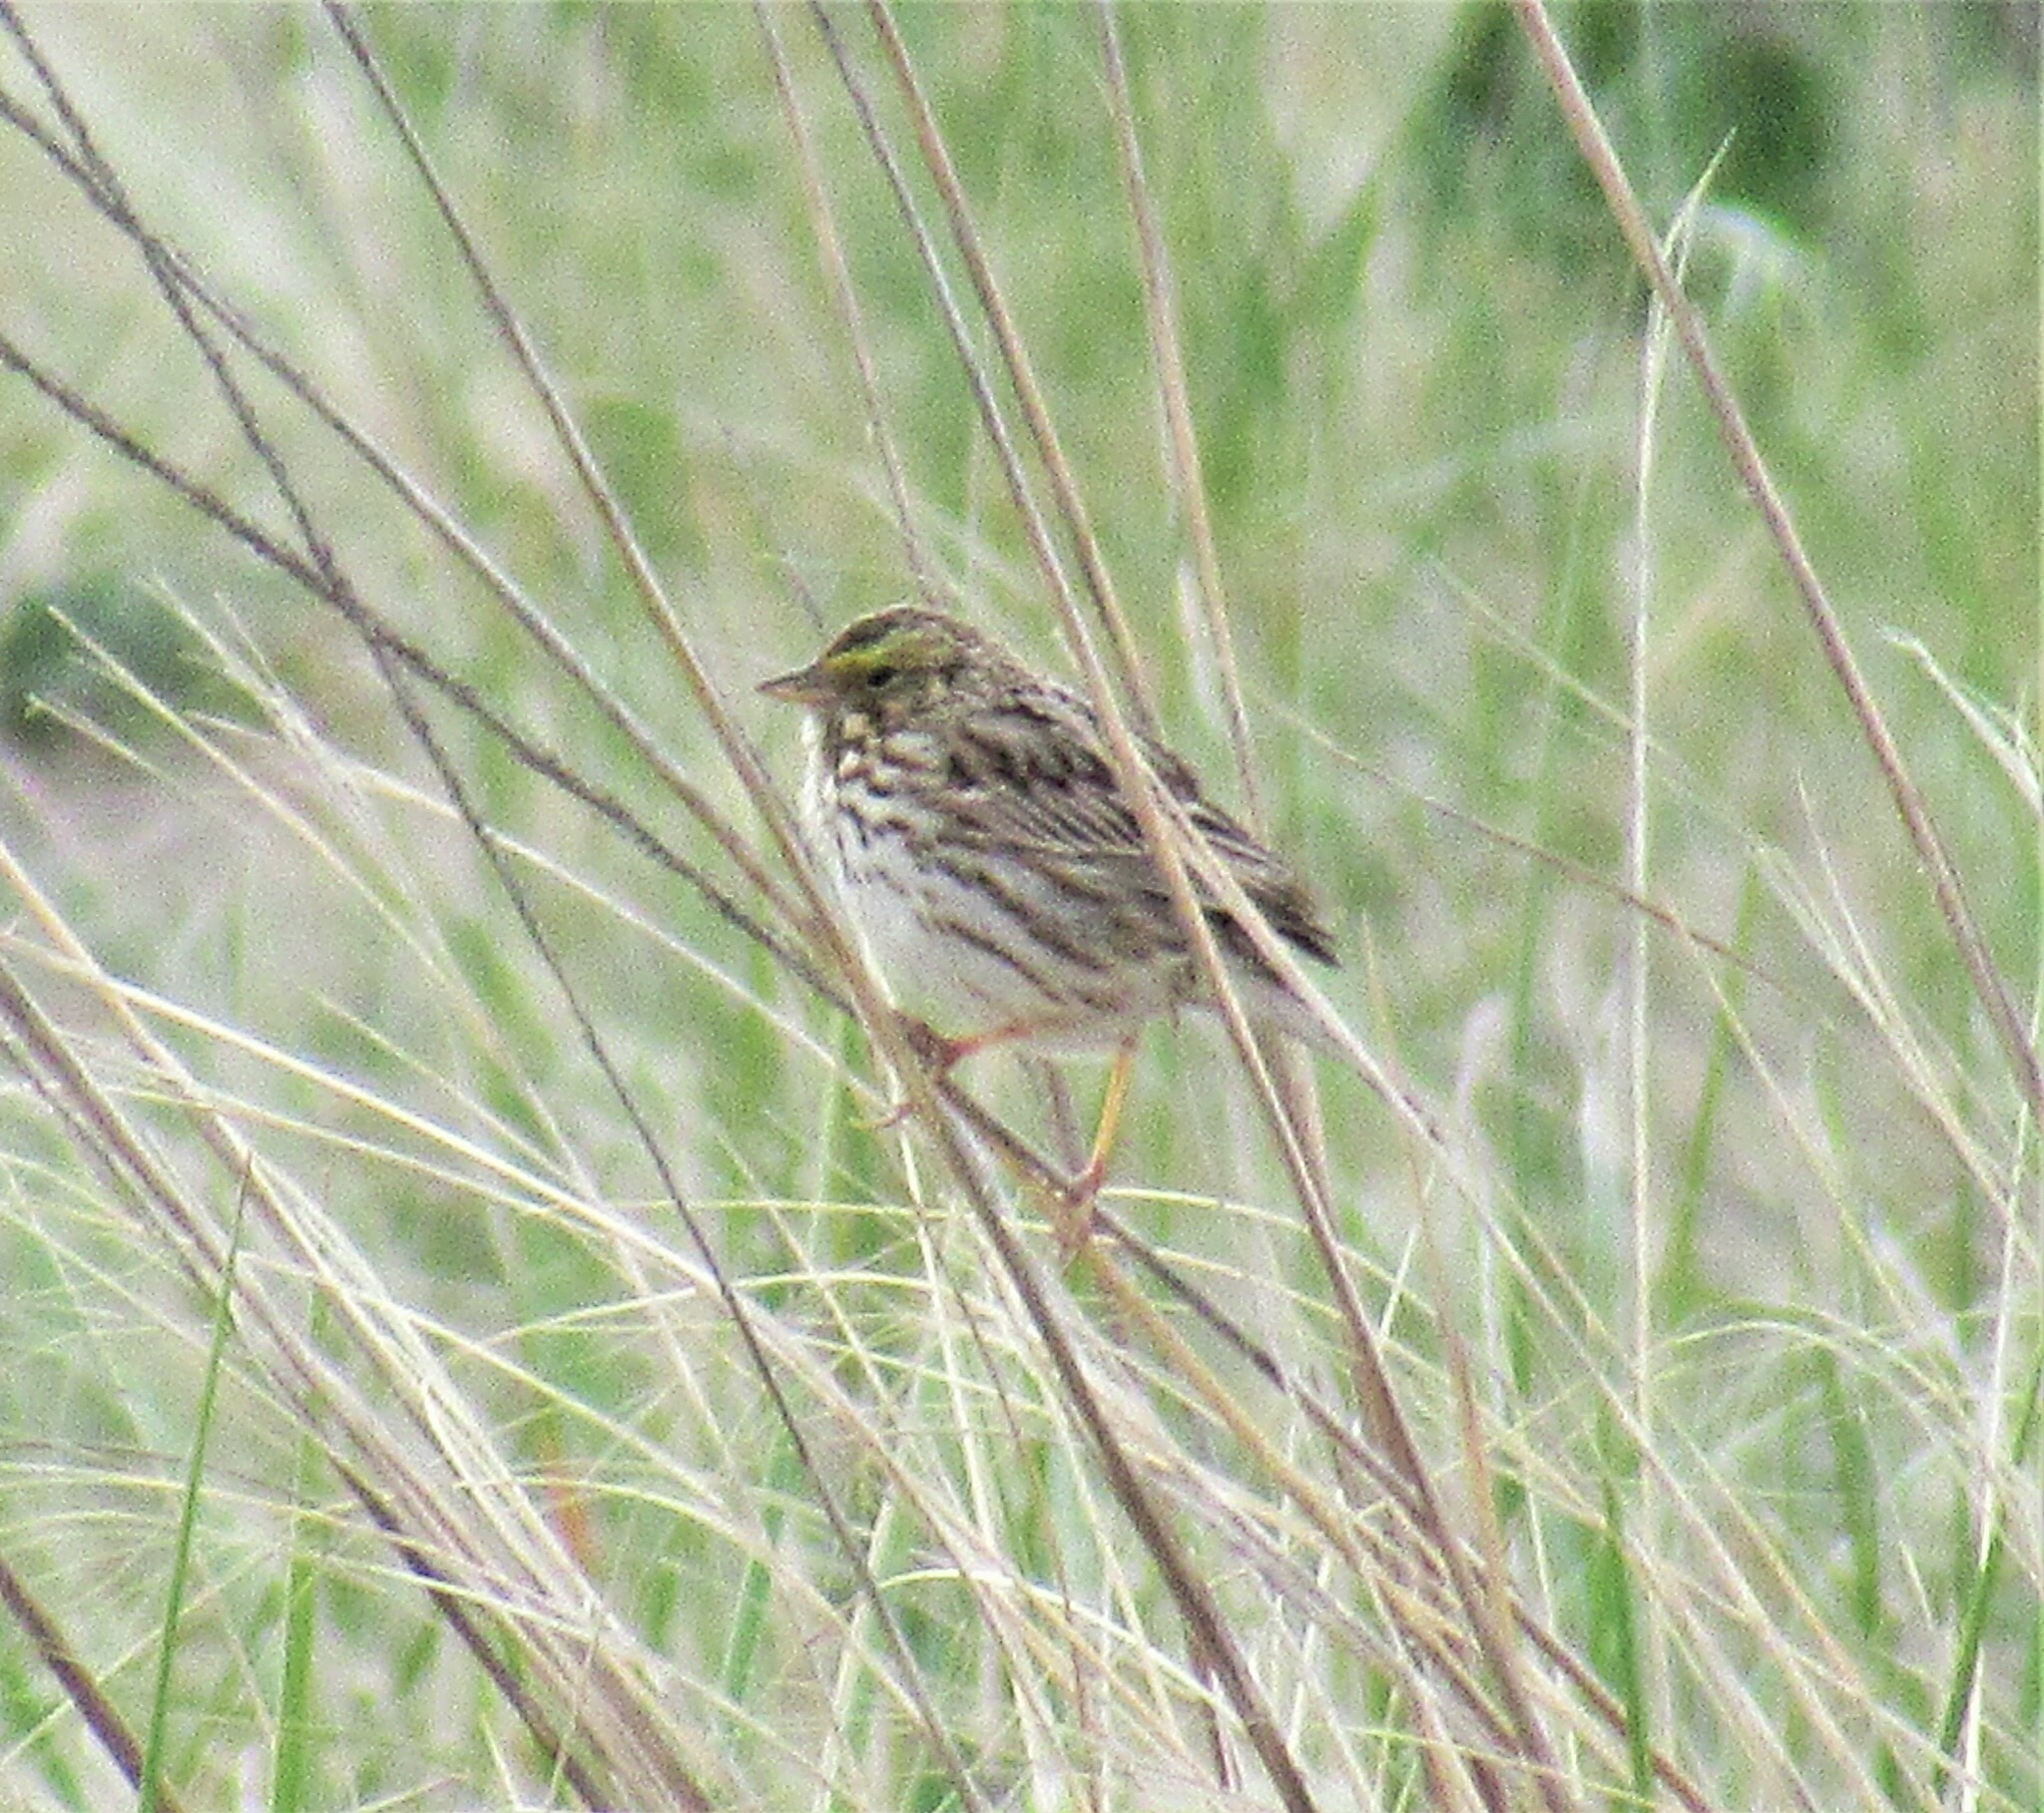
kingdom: Animalia
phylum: Chordata
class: Aves
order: Passeriformes
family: Passerellidae
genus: Passerculus
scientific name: Passerculus sandwichensis
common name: Savannah sparrow
